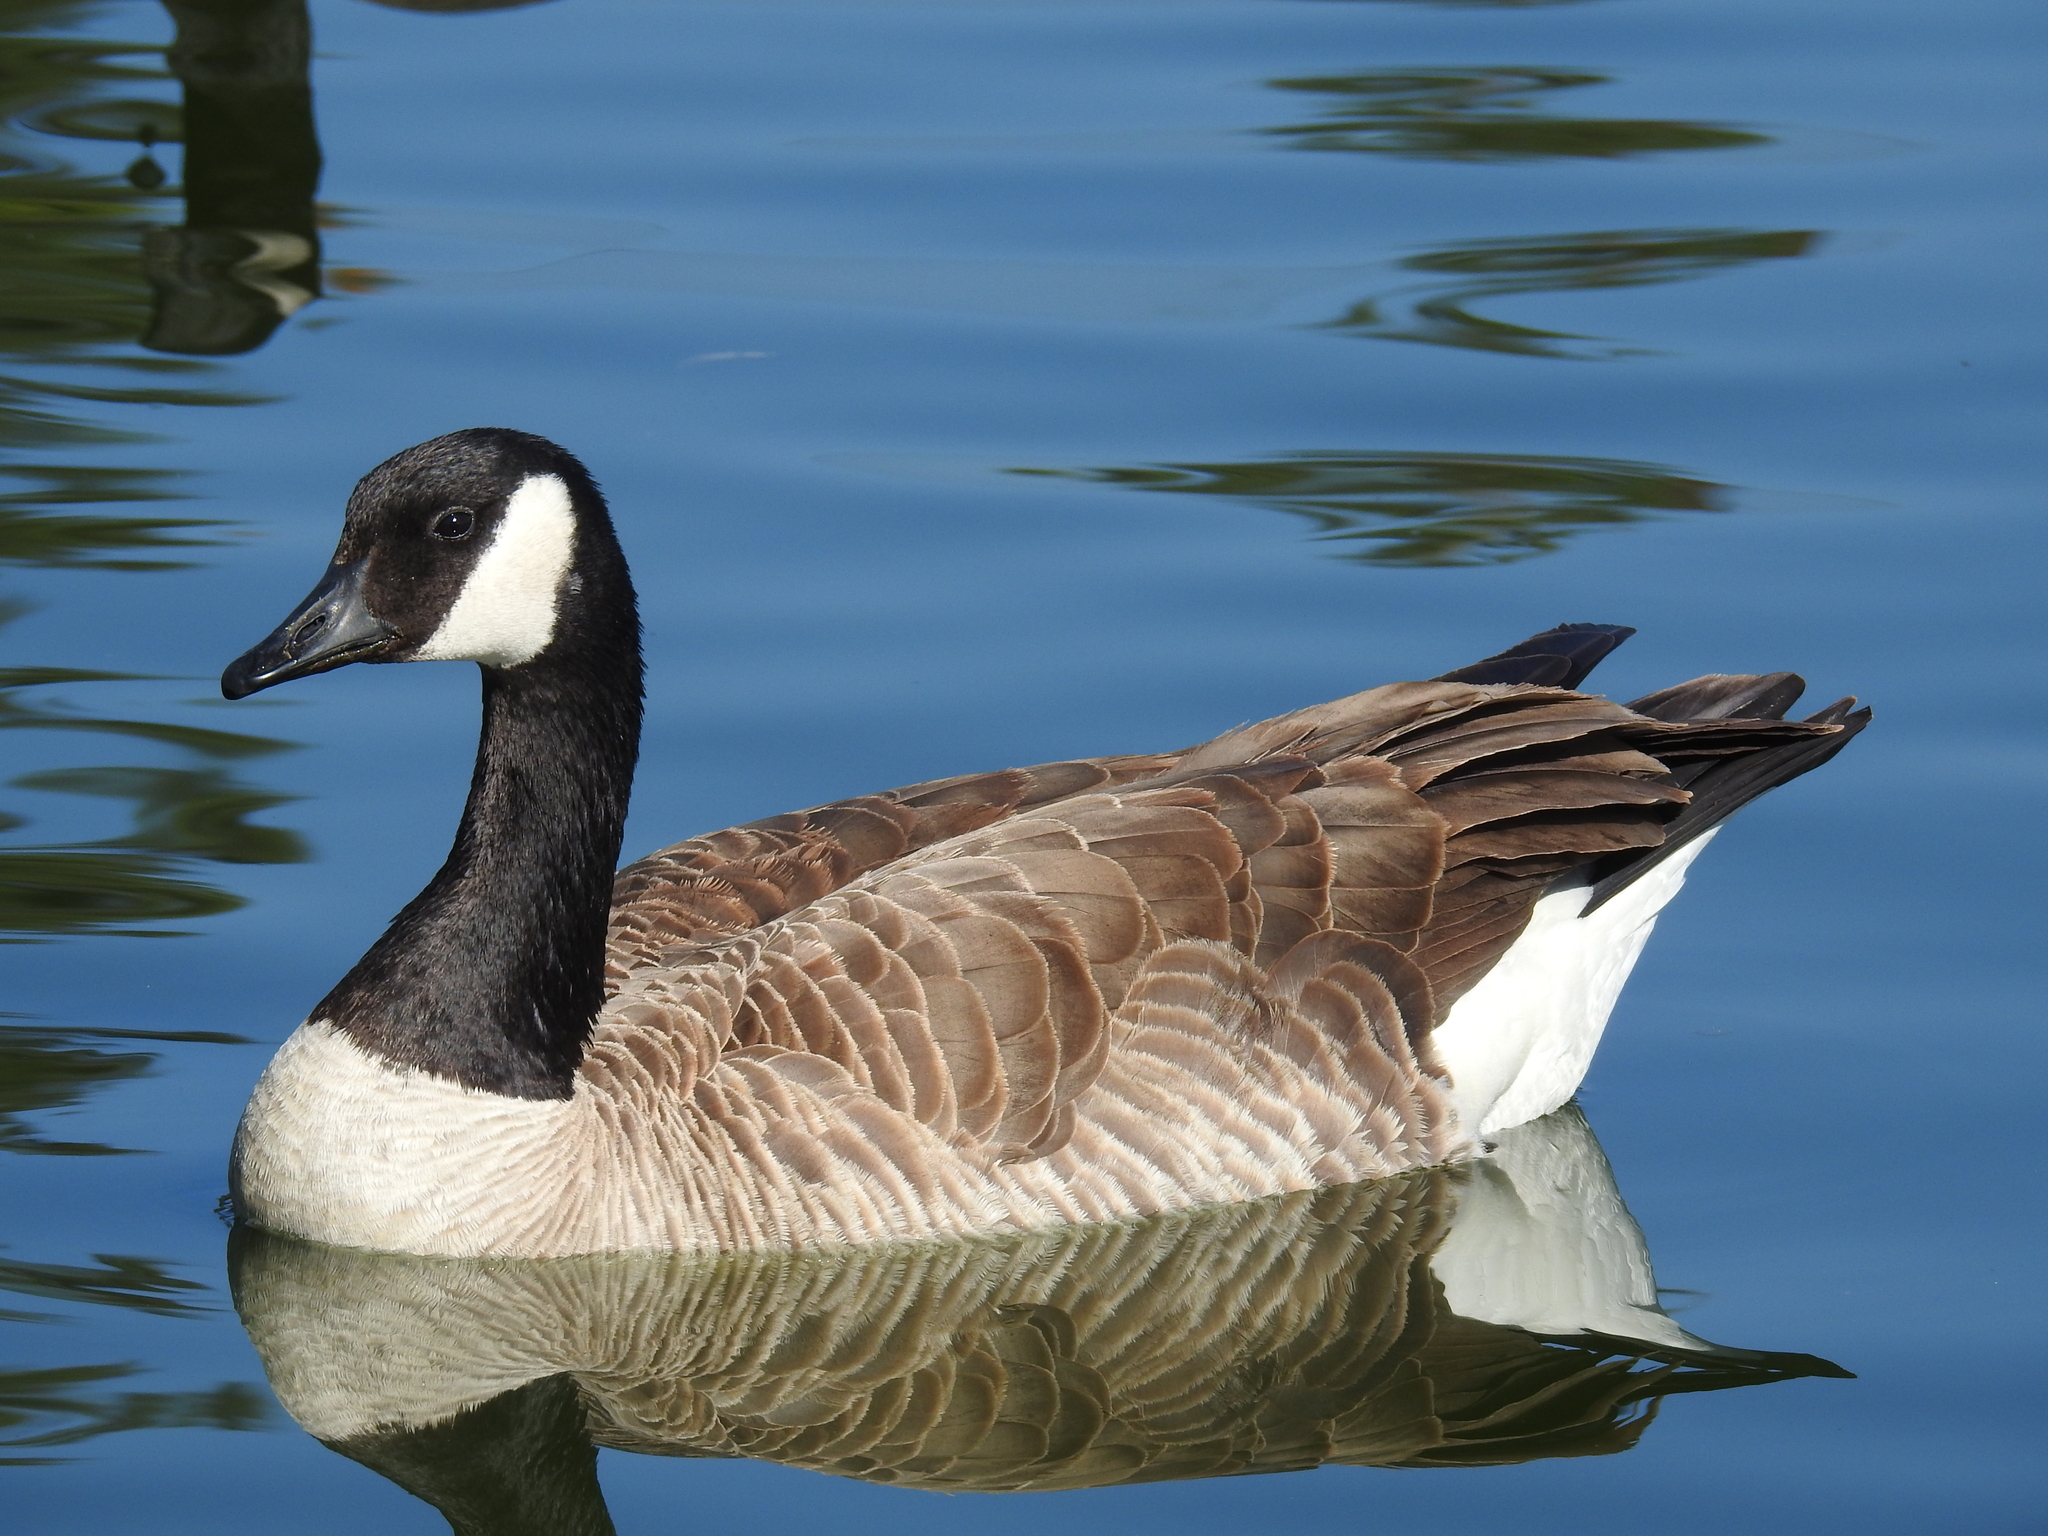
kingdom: Animalia
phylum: Chordata
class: Aves
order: Anseriformes
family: Anatidae
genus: Branta
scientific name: Branta canadensis
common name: Canada goose
